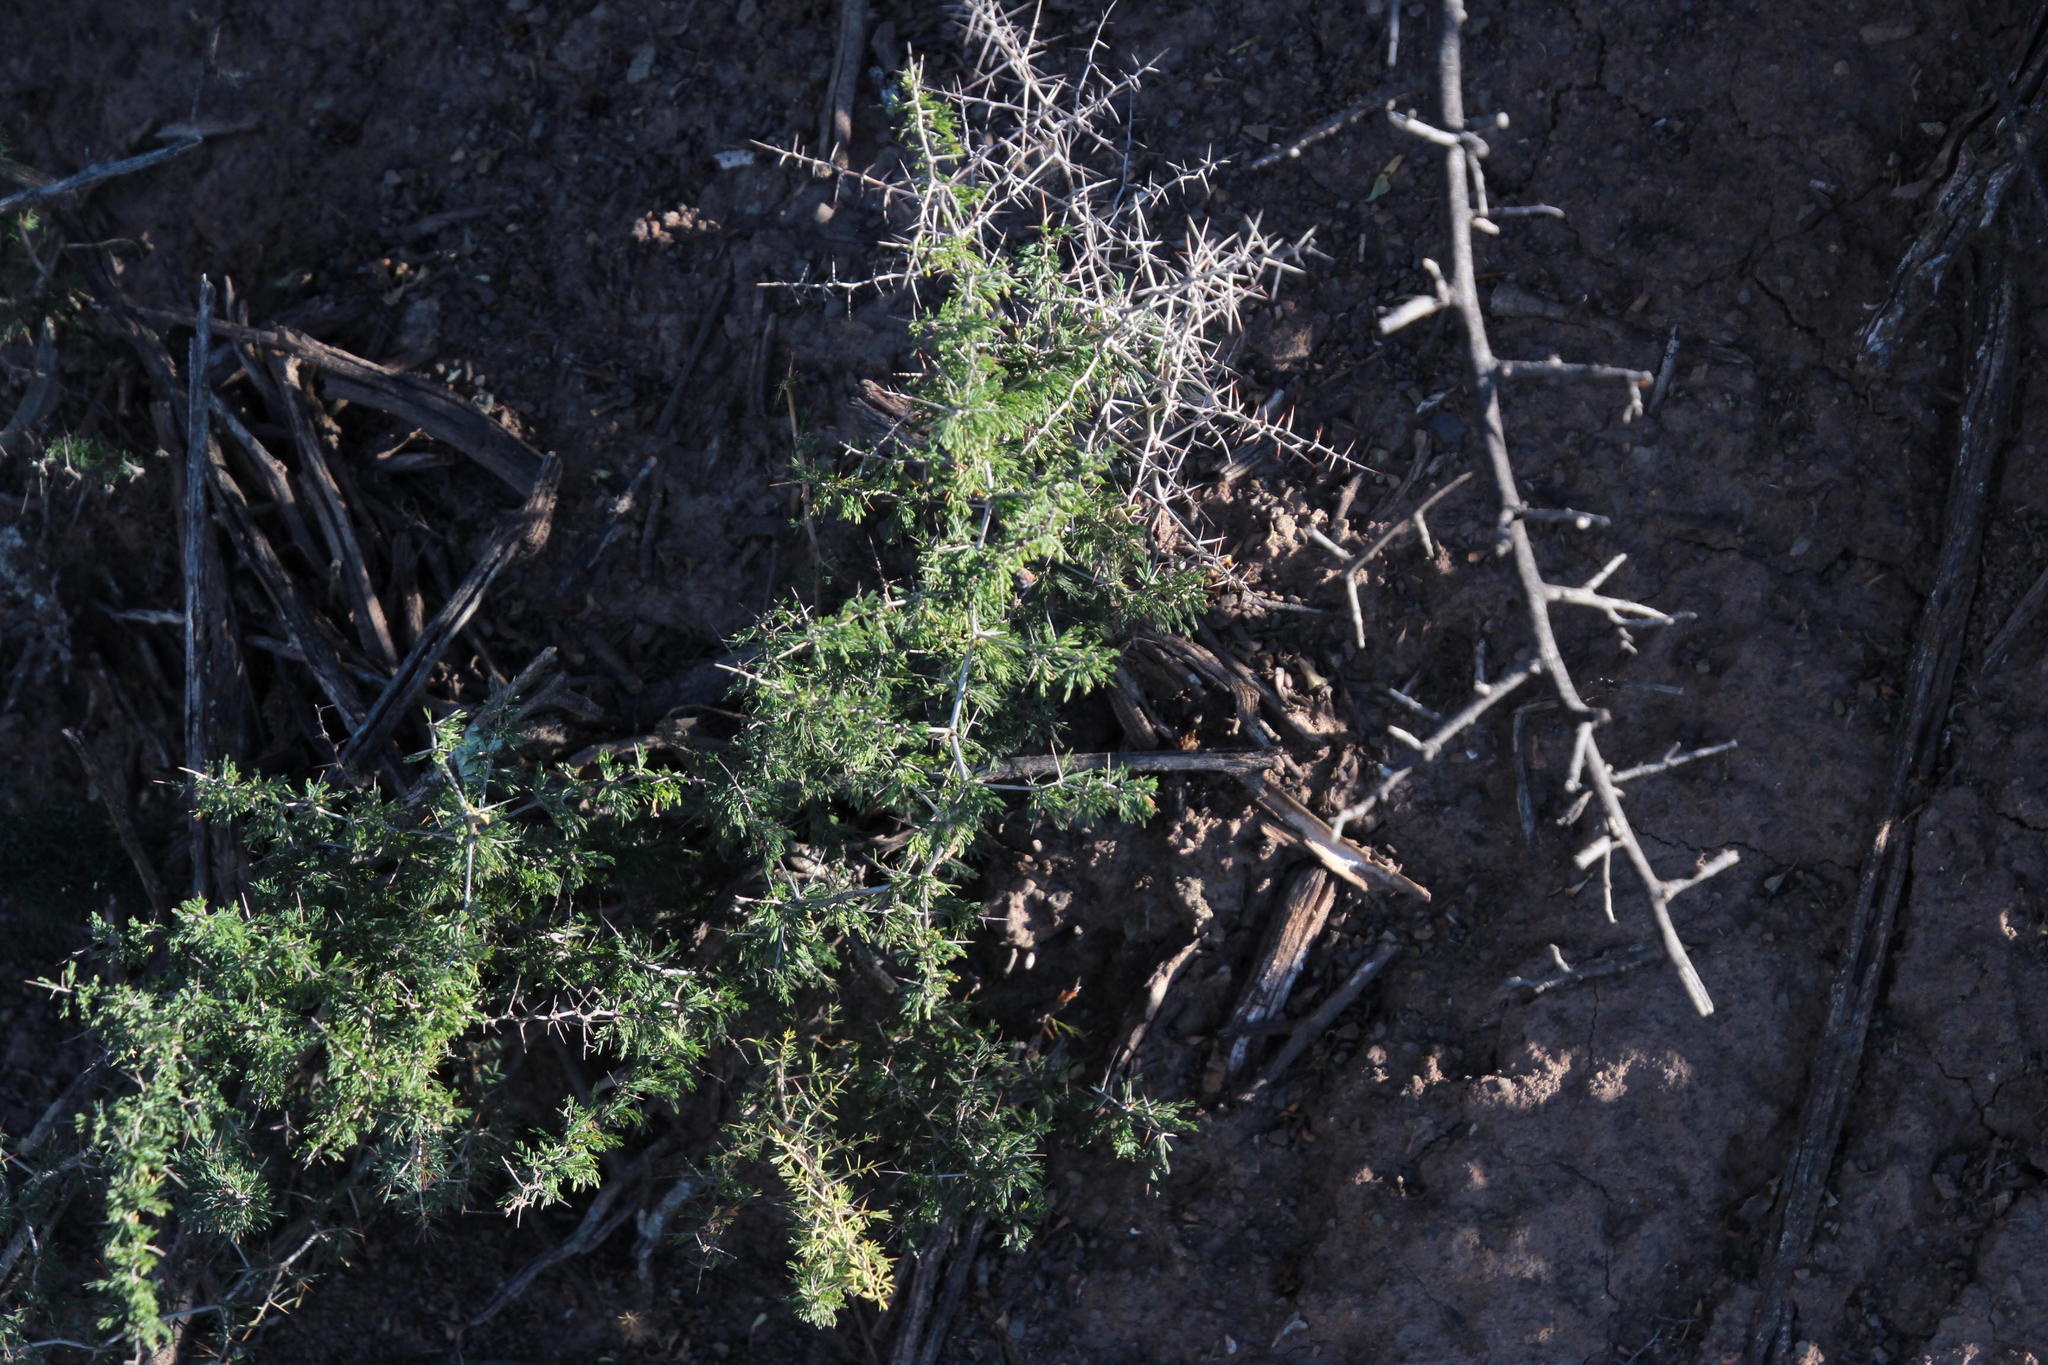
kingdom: Plantae
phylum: Tracheophyta
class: Liliopsida
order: Asparagales
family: Asparagaceae
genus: Asparagus
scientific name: Asparagus suaveolens
